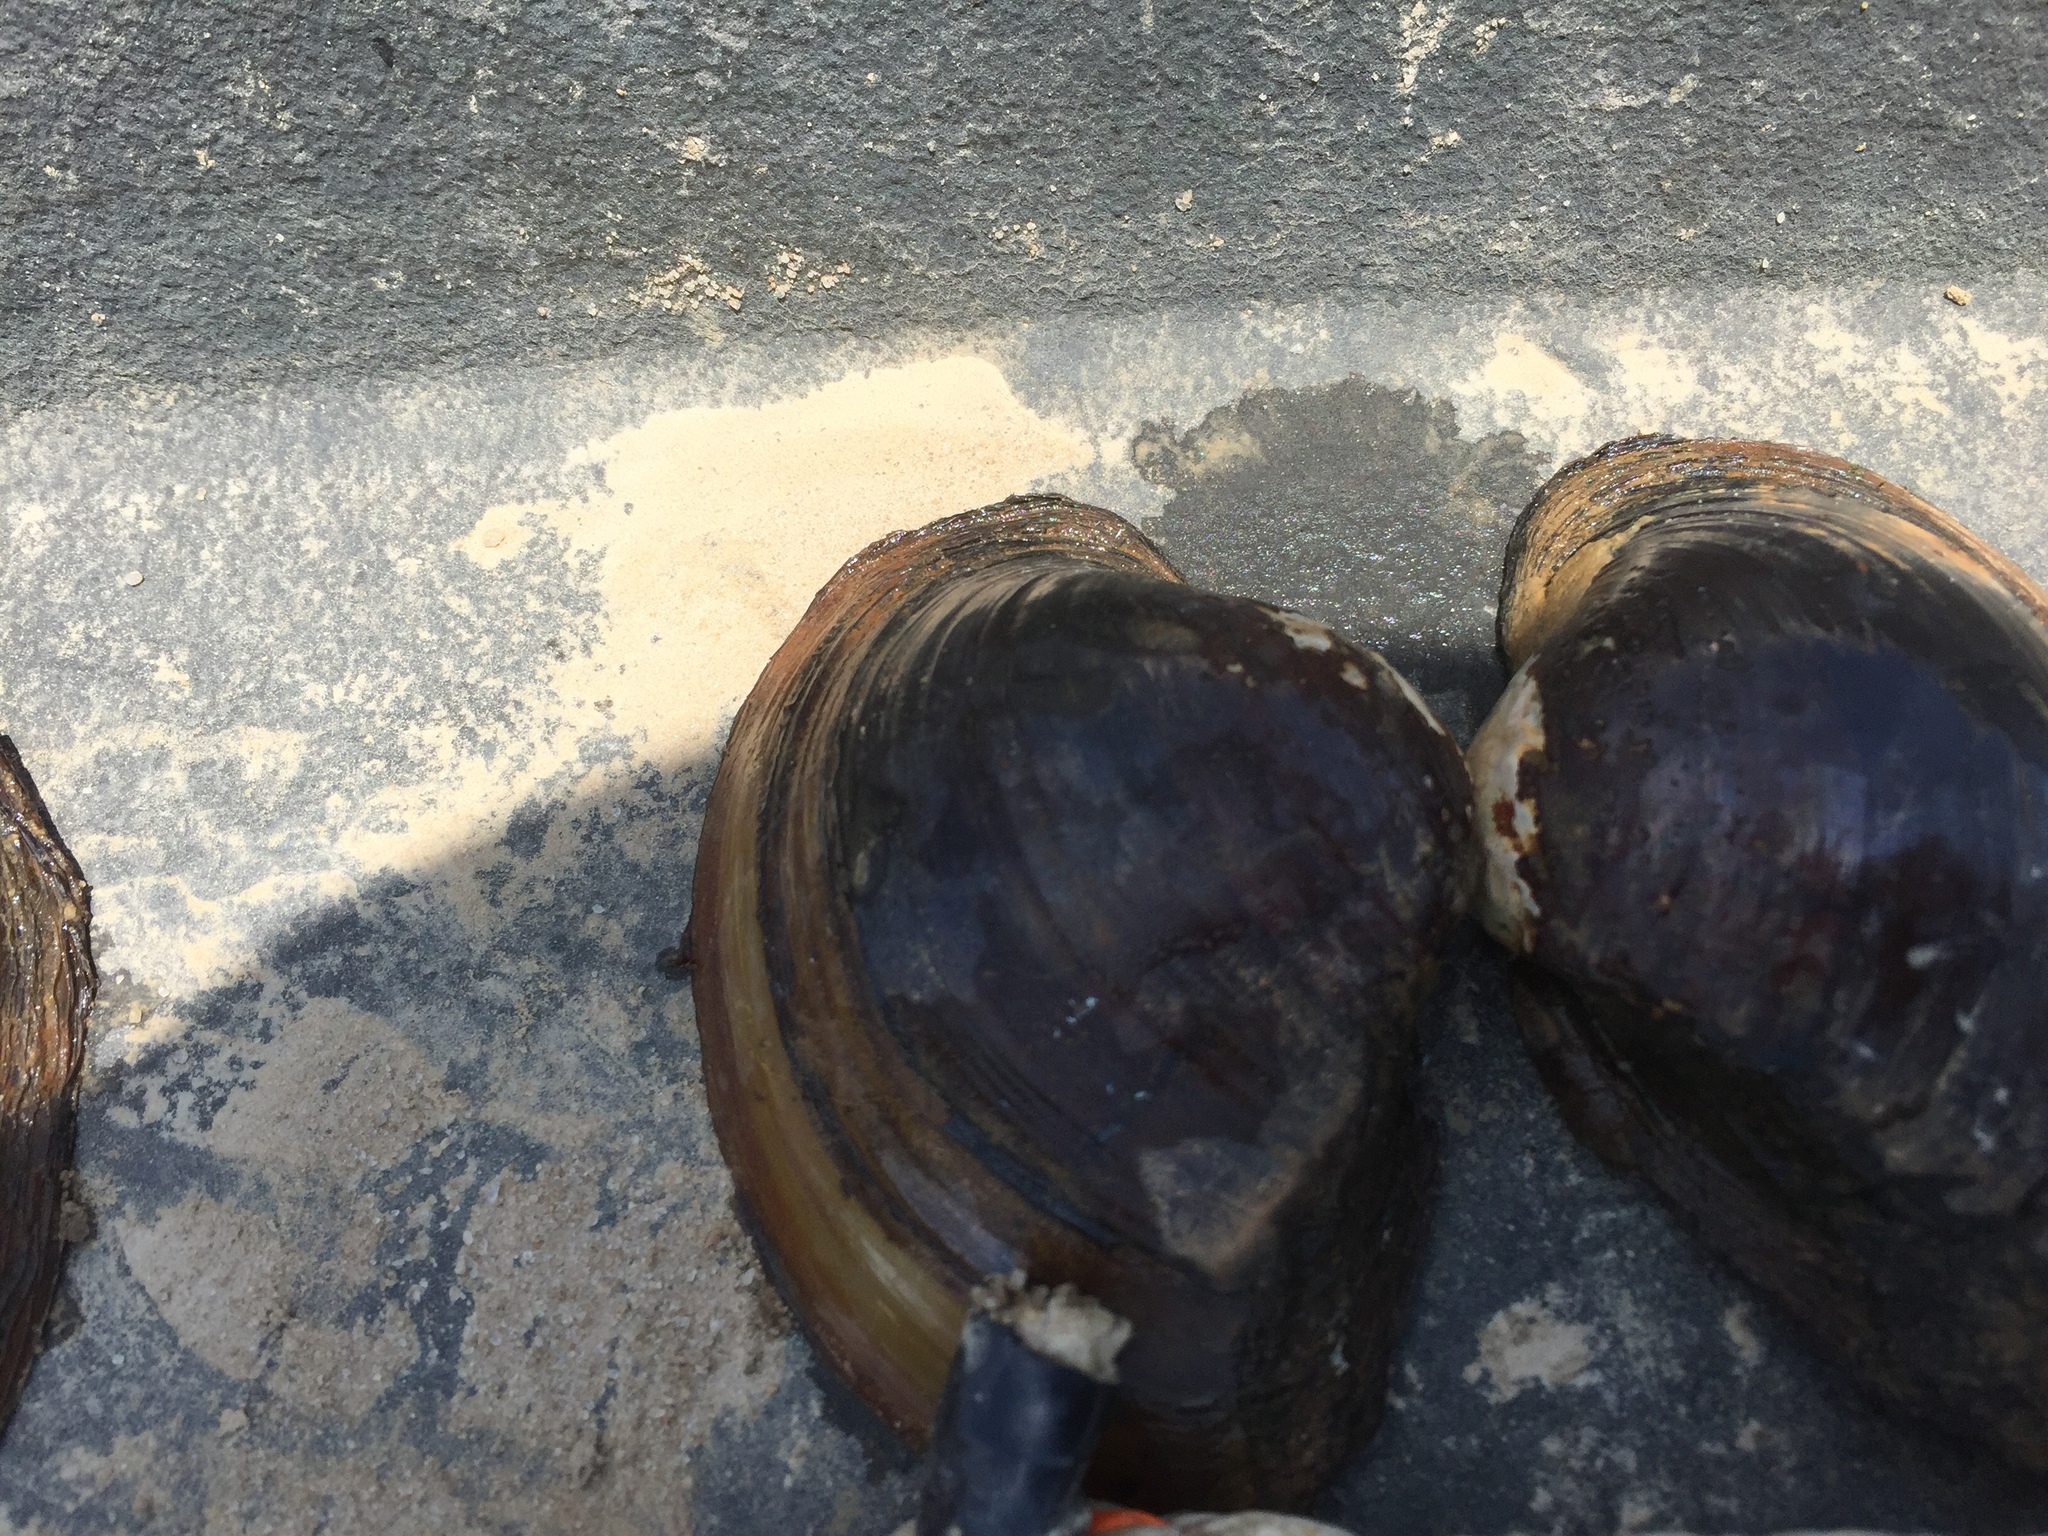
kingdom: Animalia
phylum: Mollusca
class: Bivalvia
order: Unionida
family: Unionidae
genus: Lampsilis
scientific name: Lampsilis ornata
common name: Southern pocketbook
